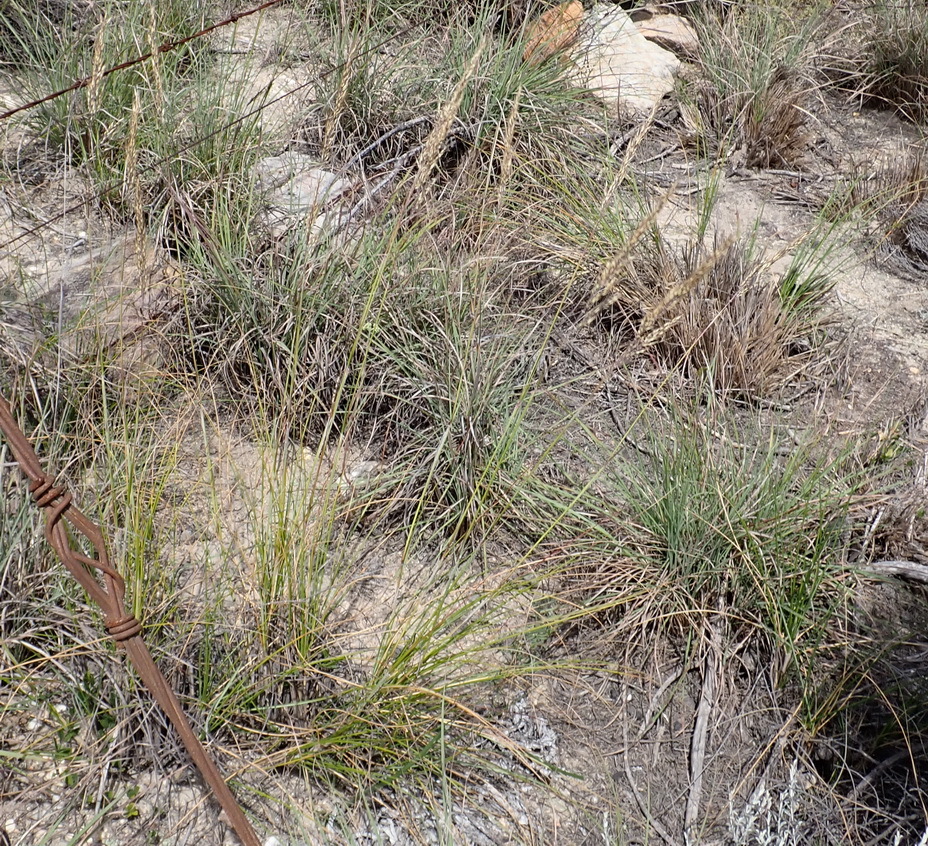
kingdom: Plantae
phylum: Tracheophyta
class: Liliopsida
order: Poales
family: Poaceae
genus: Tenaxia
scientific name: Tenaxia stricta
